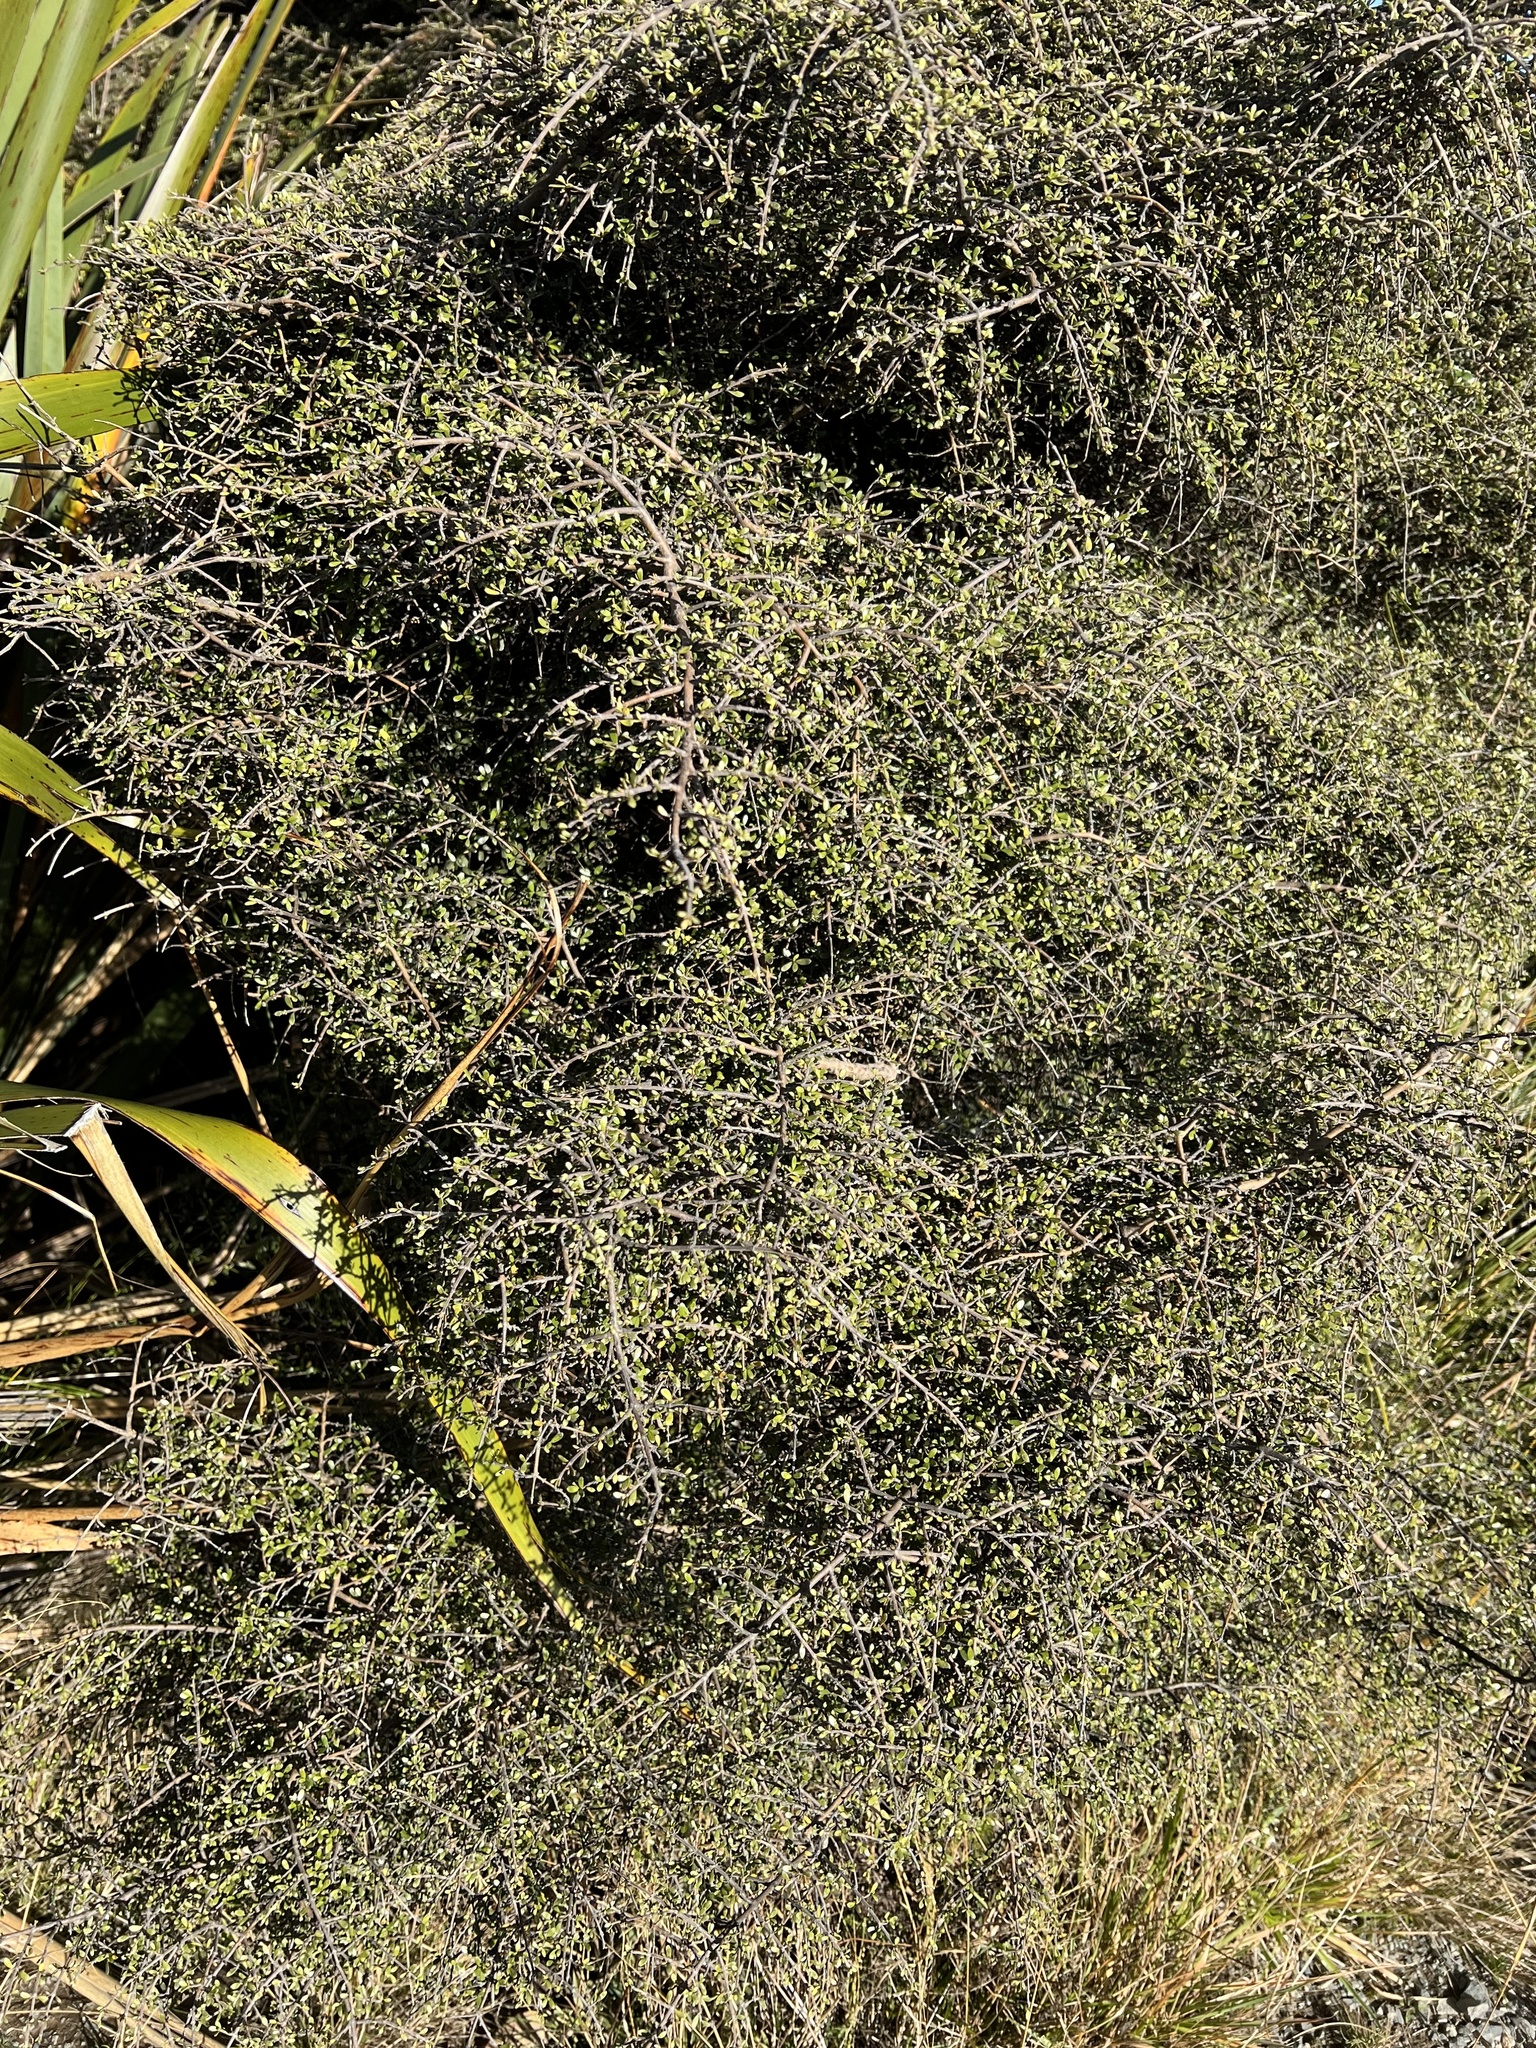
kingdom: Plantae
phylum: Tracheophyta
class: Magnoliopsida
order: Gentianales
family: Rubiaceae
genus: Coprosma
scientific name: Coprosma dumosa
